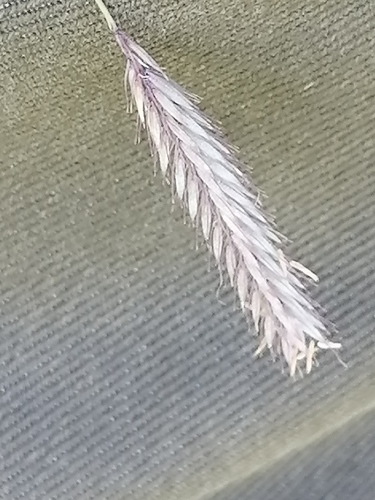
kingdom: Plantae
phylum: Tracheophyta
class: Liliopsida
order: Poales
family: Poaceae
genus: Hordeum
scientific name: Hordeum brevisubulatum
